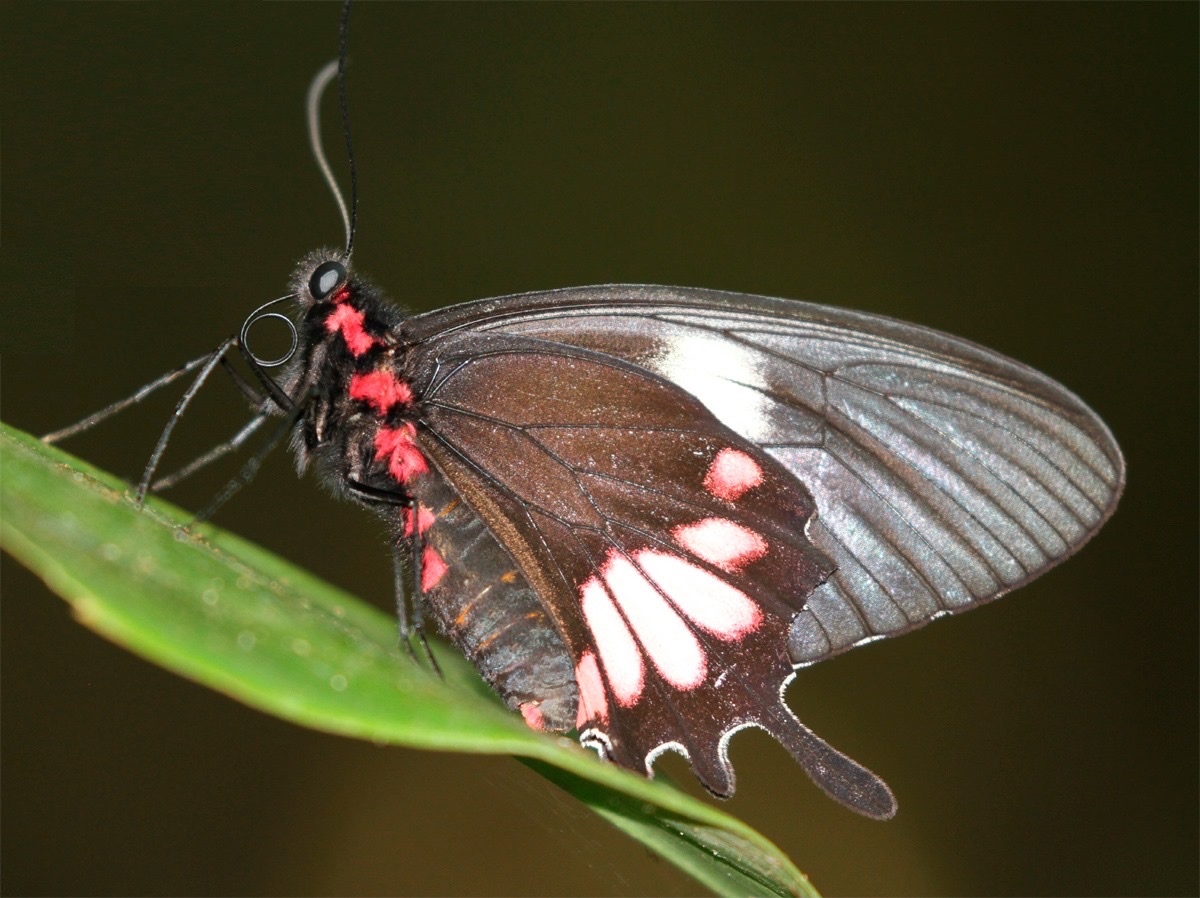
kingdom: Animalia
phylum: Arthropoda
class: Insecta
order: Lepidoptera
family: Papilionidae
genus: Parides
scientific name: Parides tros
